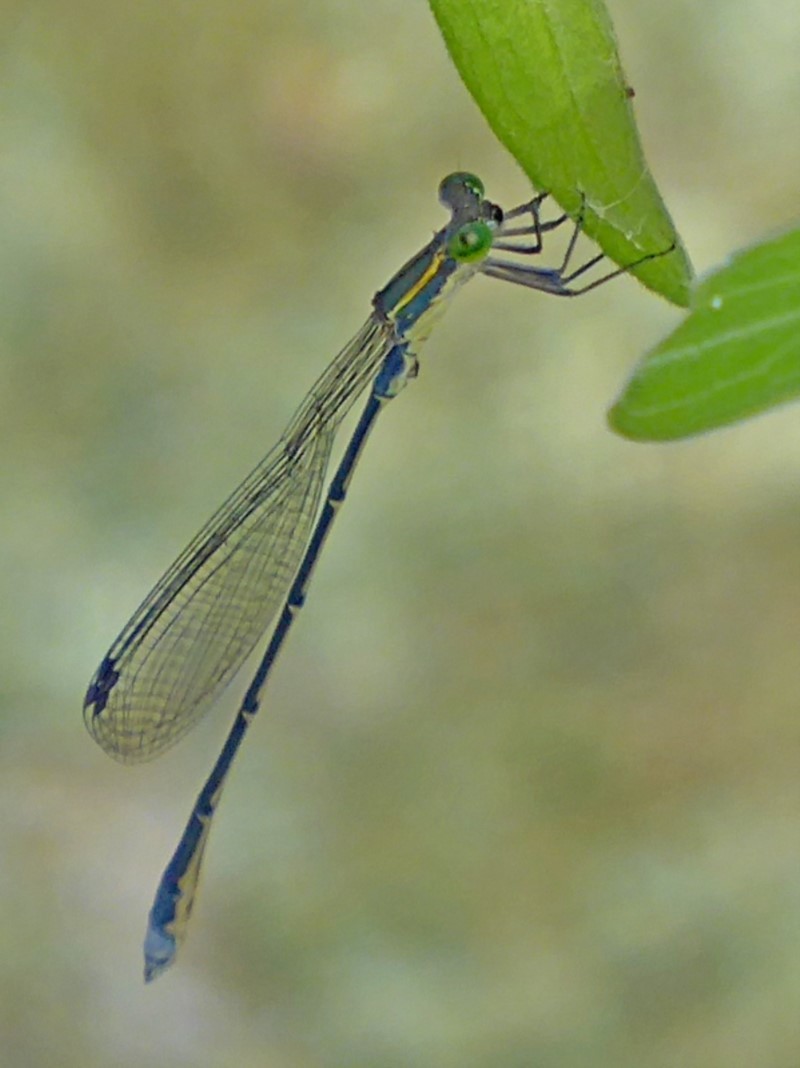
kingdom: Animalia
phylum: Arthropoda
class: Insecta
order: Odonata
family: Isostictidae
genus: Rhadinosticta
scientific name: Rhadinosticta simplex
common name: Powdered wiretail
